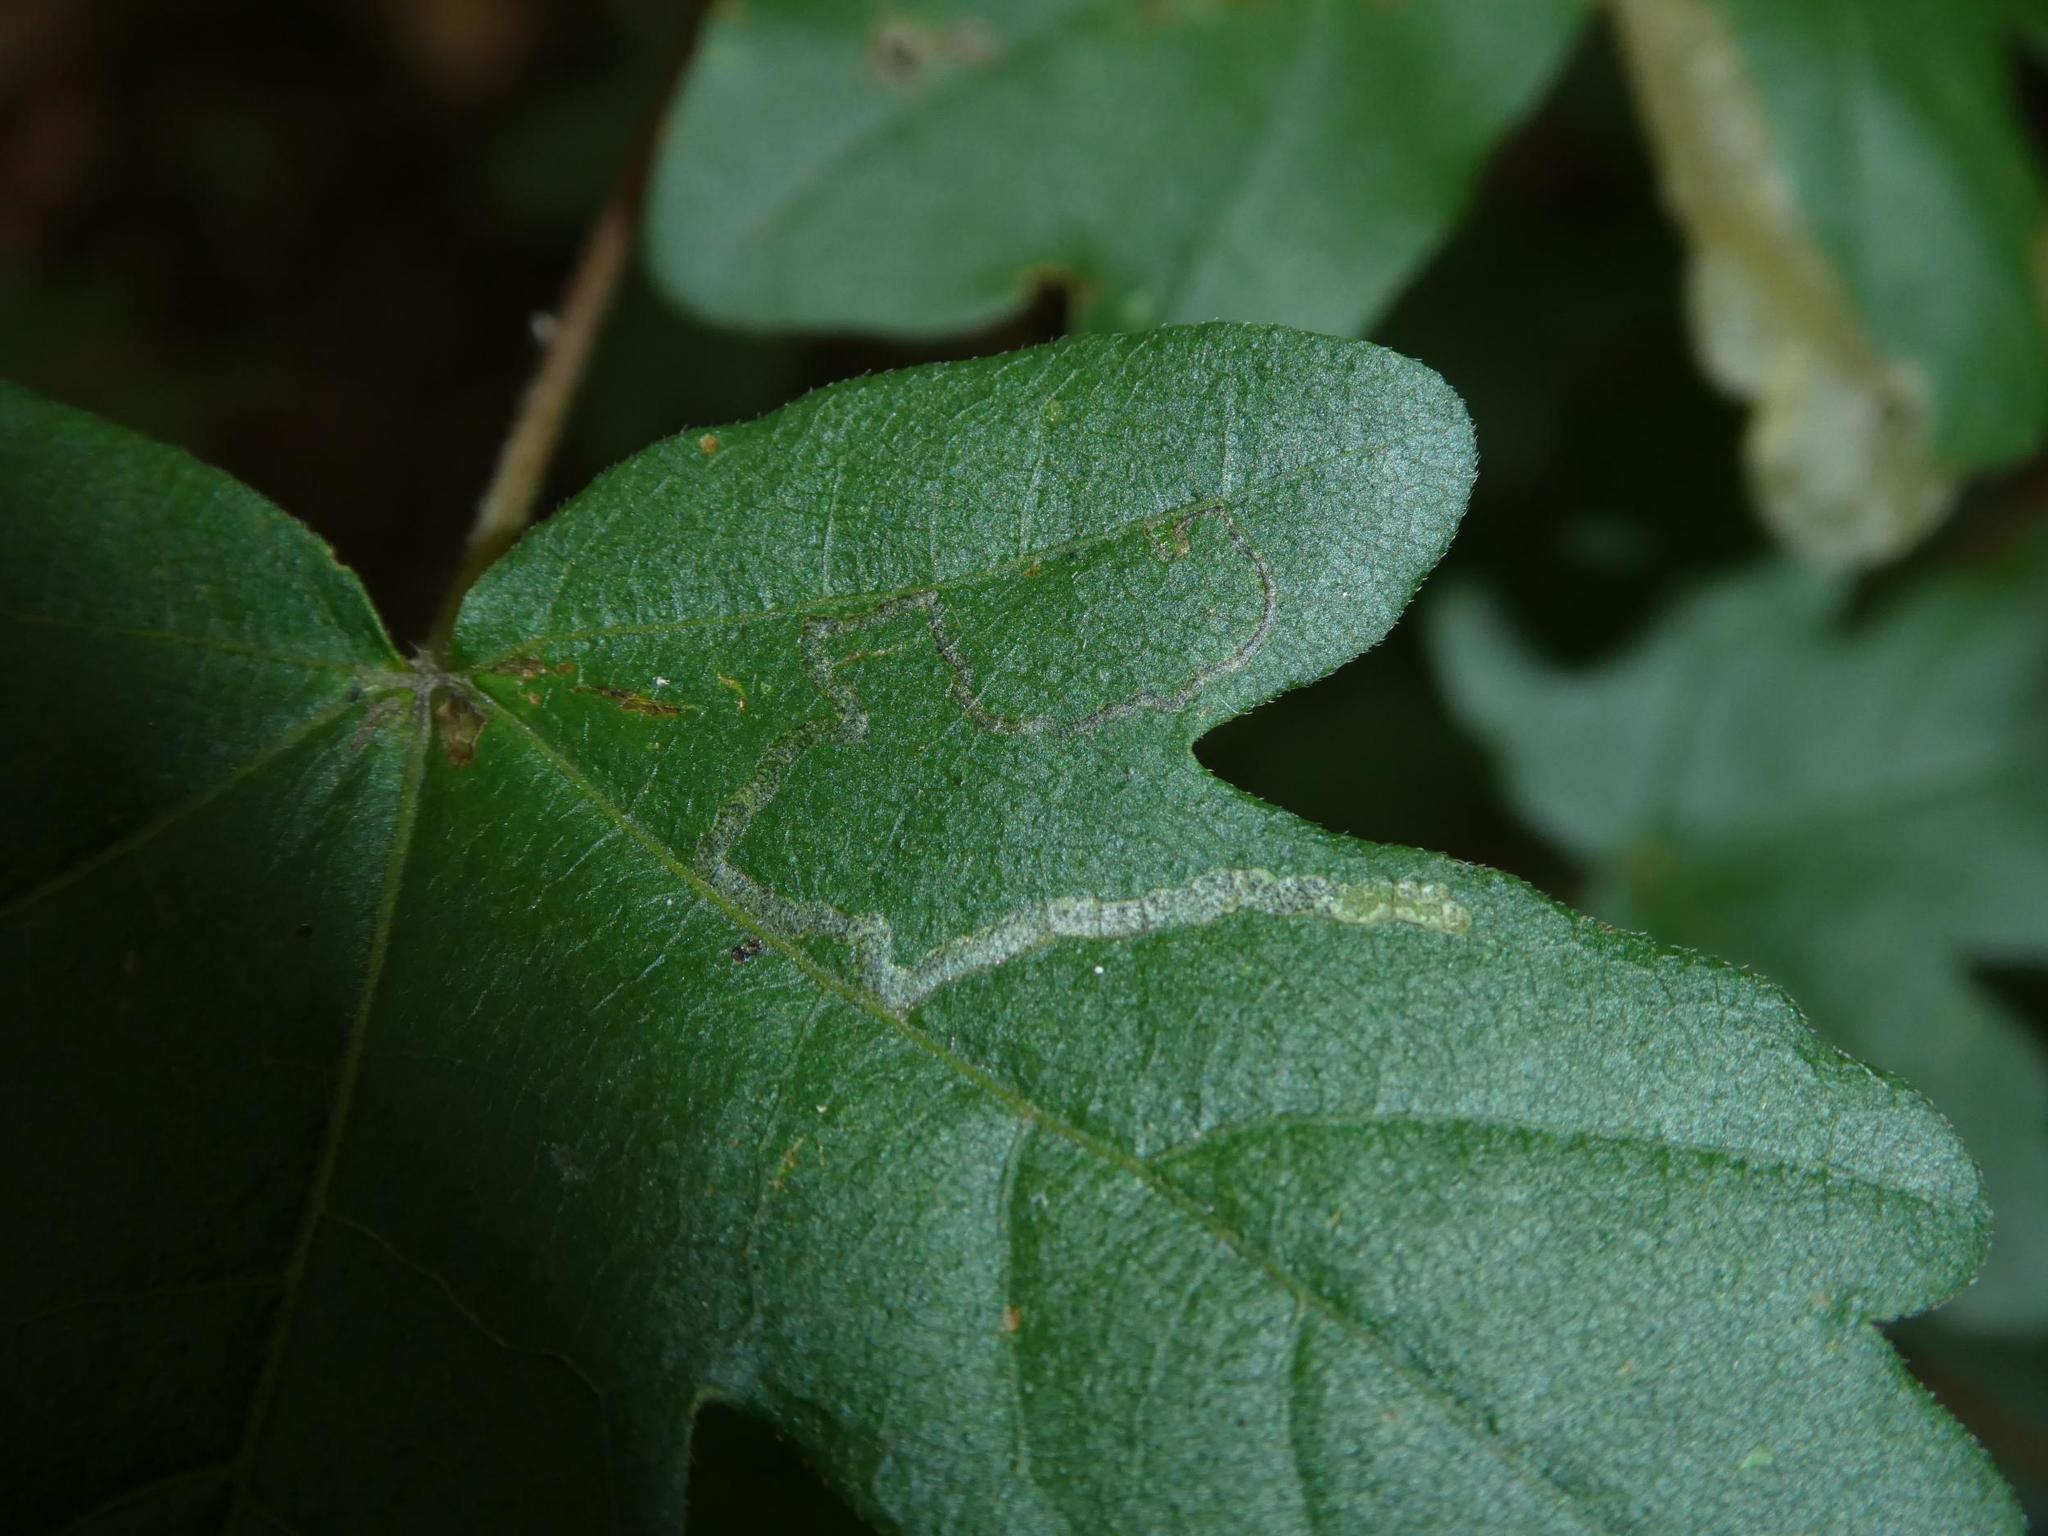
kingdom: Animalia
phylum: Arthropoda
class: Insecta
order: Lepidoptera
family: Nepticulidae
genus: Stigmella
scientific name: Stigmella aceris
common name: Scarce maple pigmy
